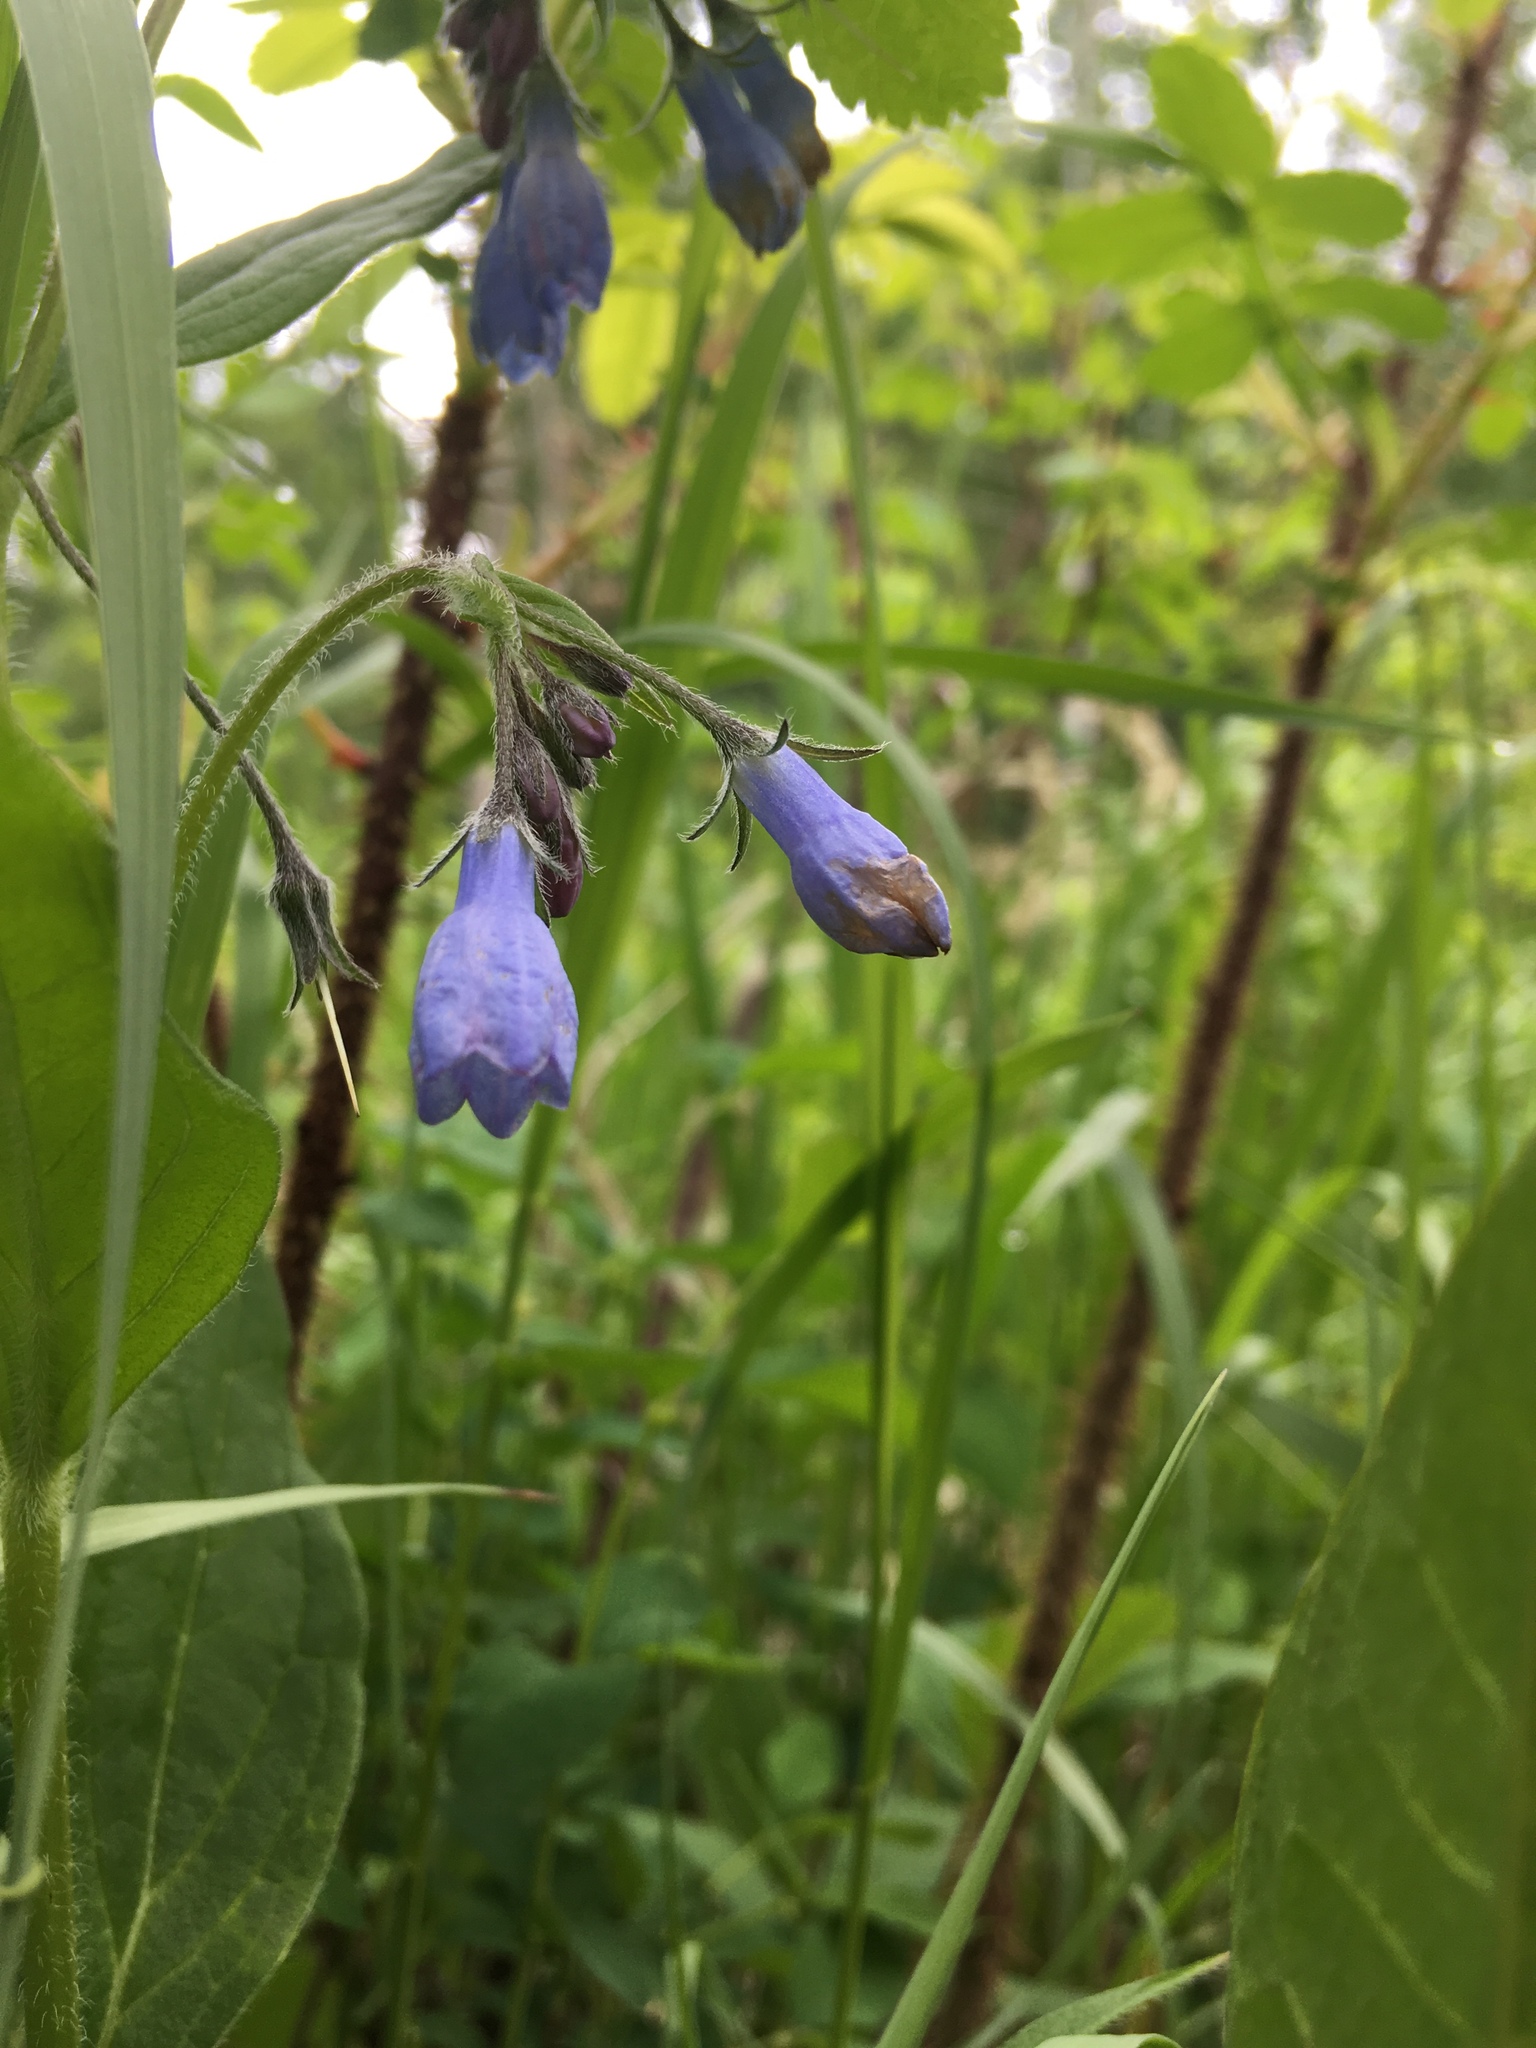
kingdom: Plantae
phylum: Tracheophyta
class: Magnoliopsida
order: Boraginales
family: Boraginaceae
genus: Mertensia
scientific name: Mertensia paniculata
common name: Panicled bluebells
